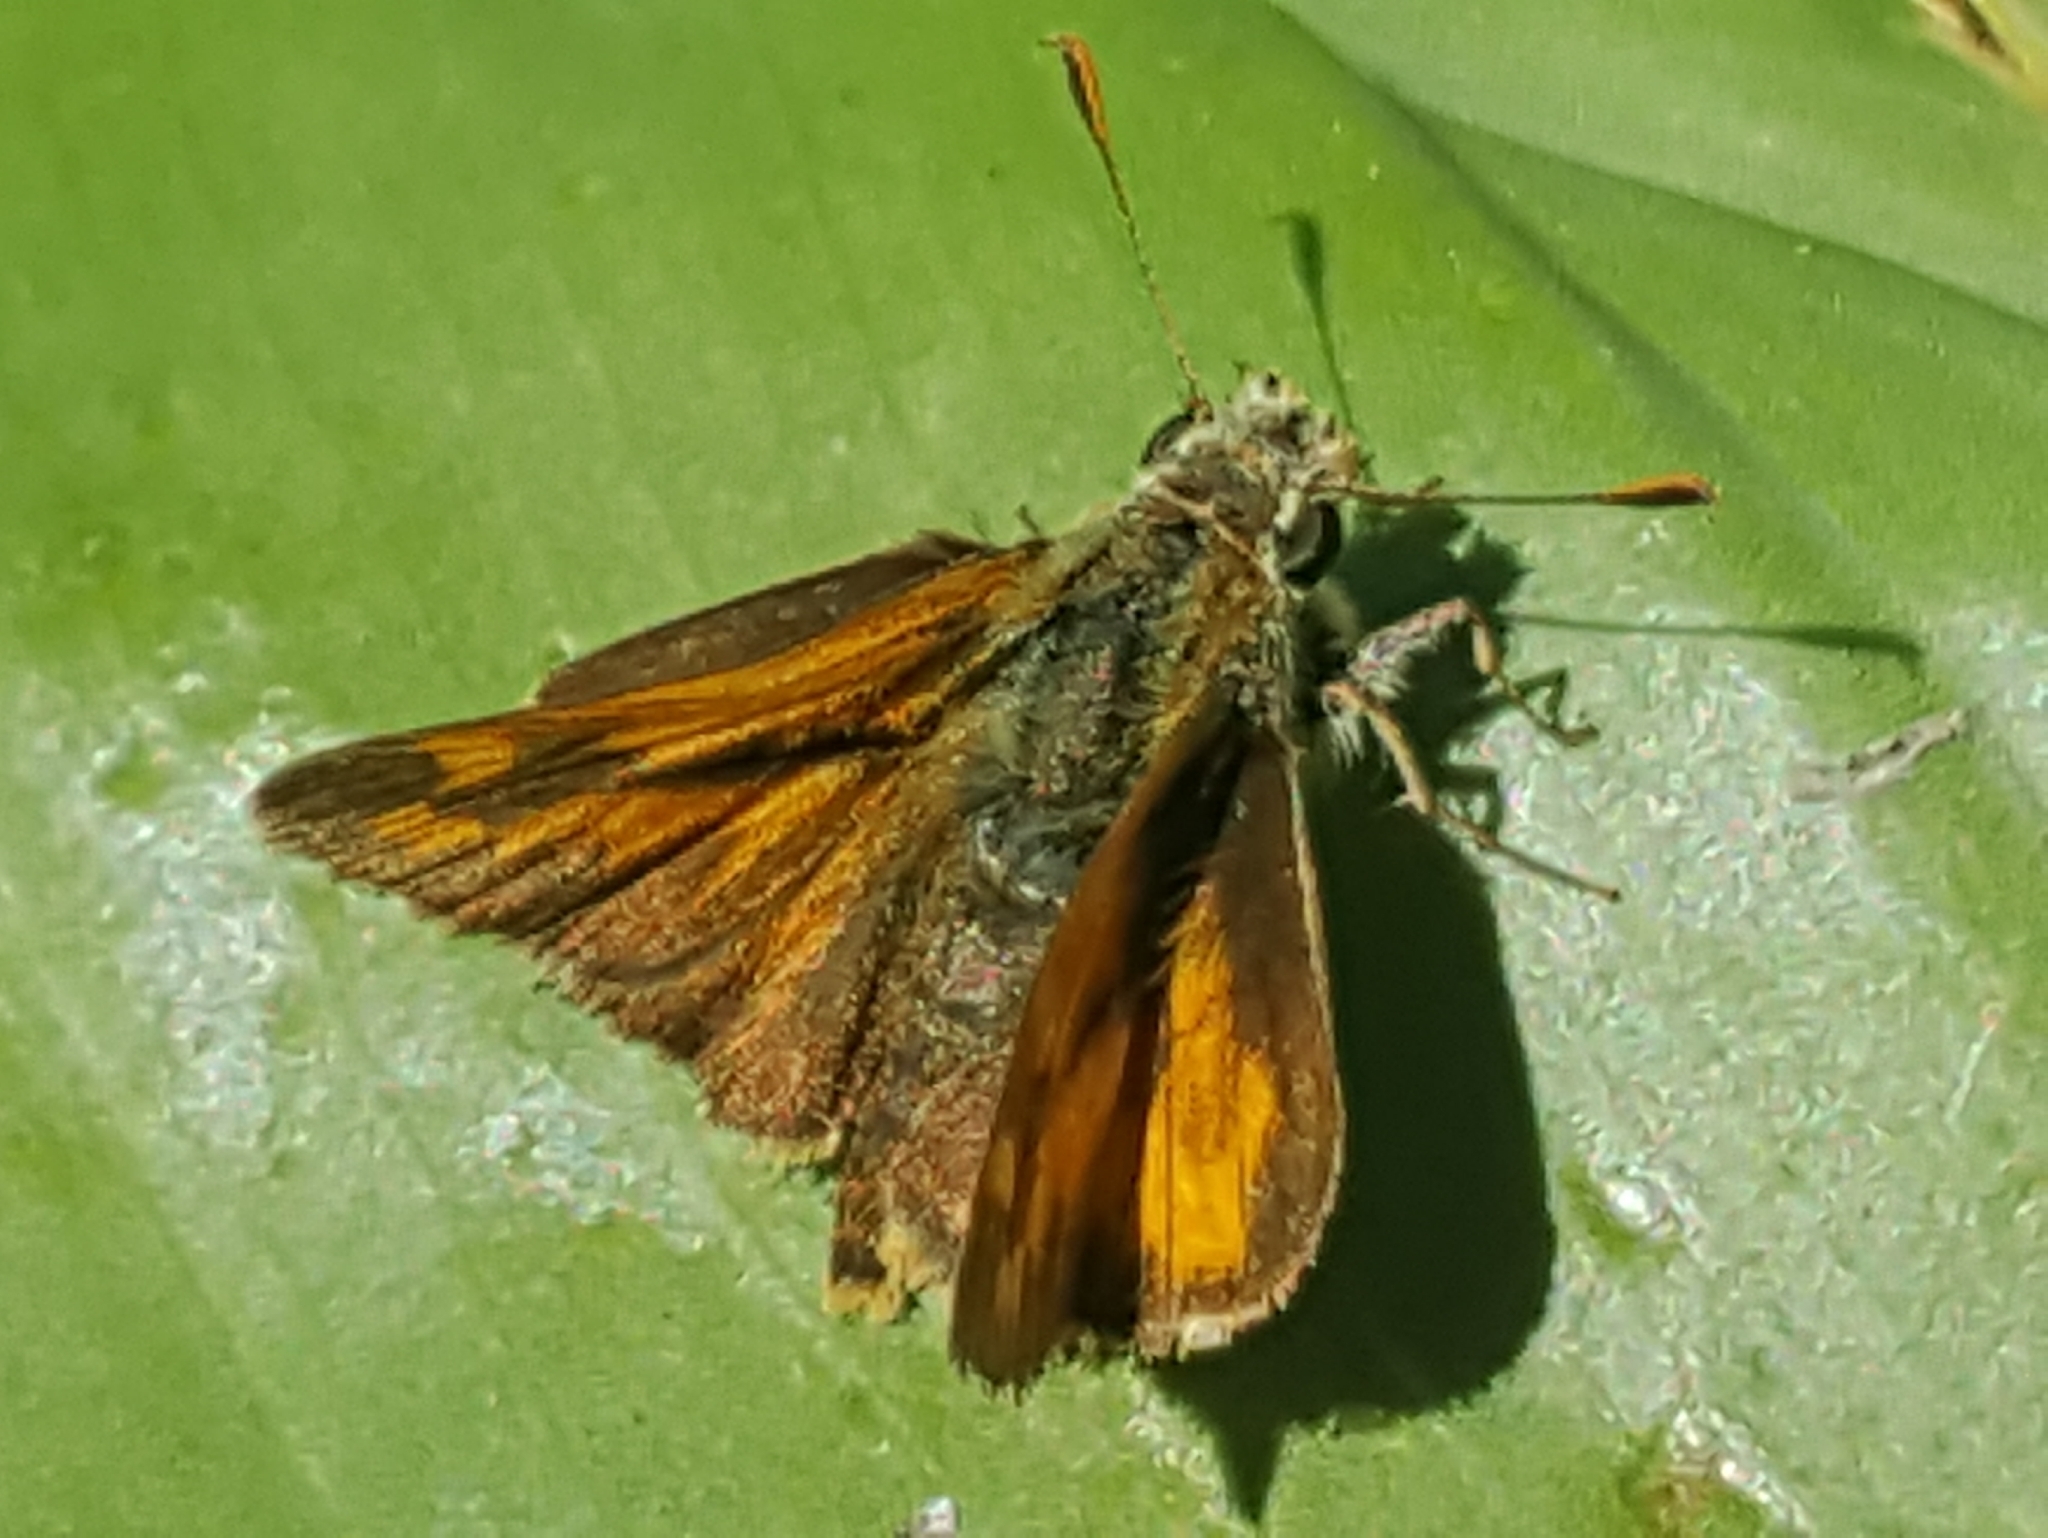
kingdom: Animalia
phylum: Arthropoda
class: Insecta
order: Lepidoptera
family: Hesperiidae
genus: Ochlodes
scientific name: Ochlodes sylvanoides
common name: Woodland skipper
